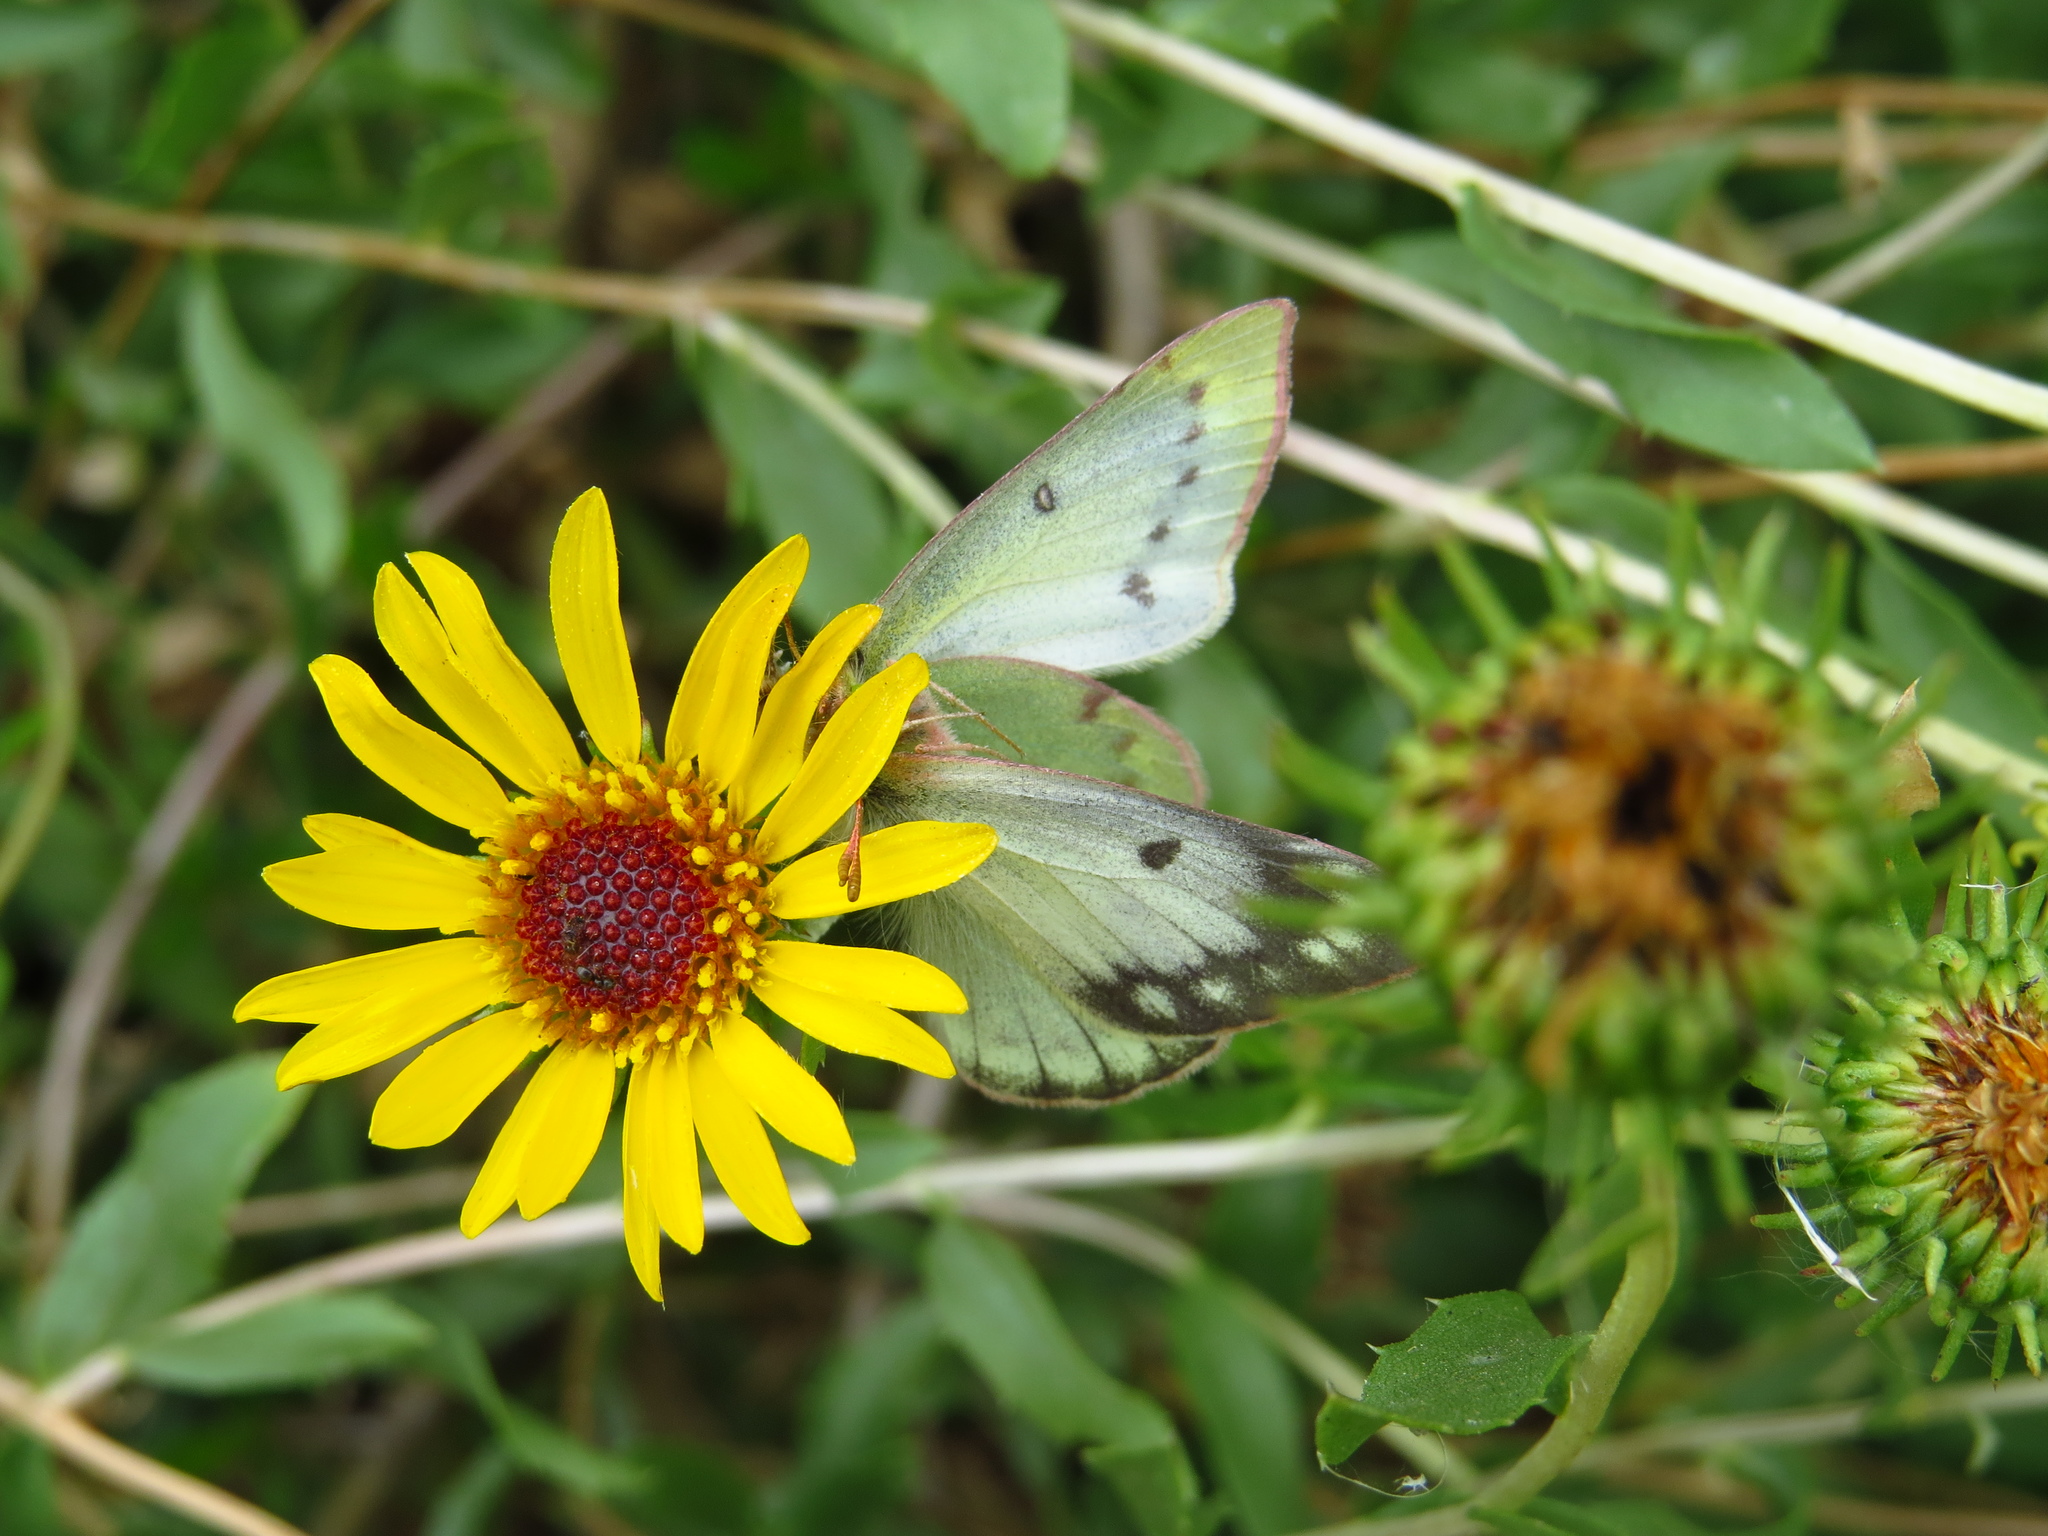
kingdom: Animalia
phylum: Arthropoda
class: Insecta
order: Lepidoptera
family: Pieridae
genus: Colias
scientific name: Colias lesbia
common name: Lesbia clouded yellow
